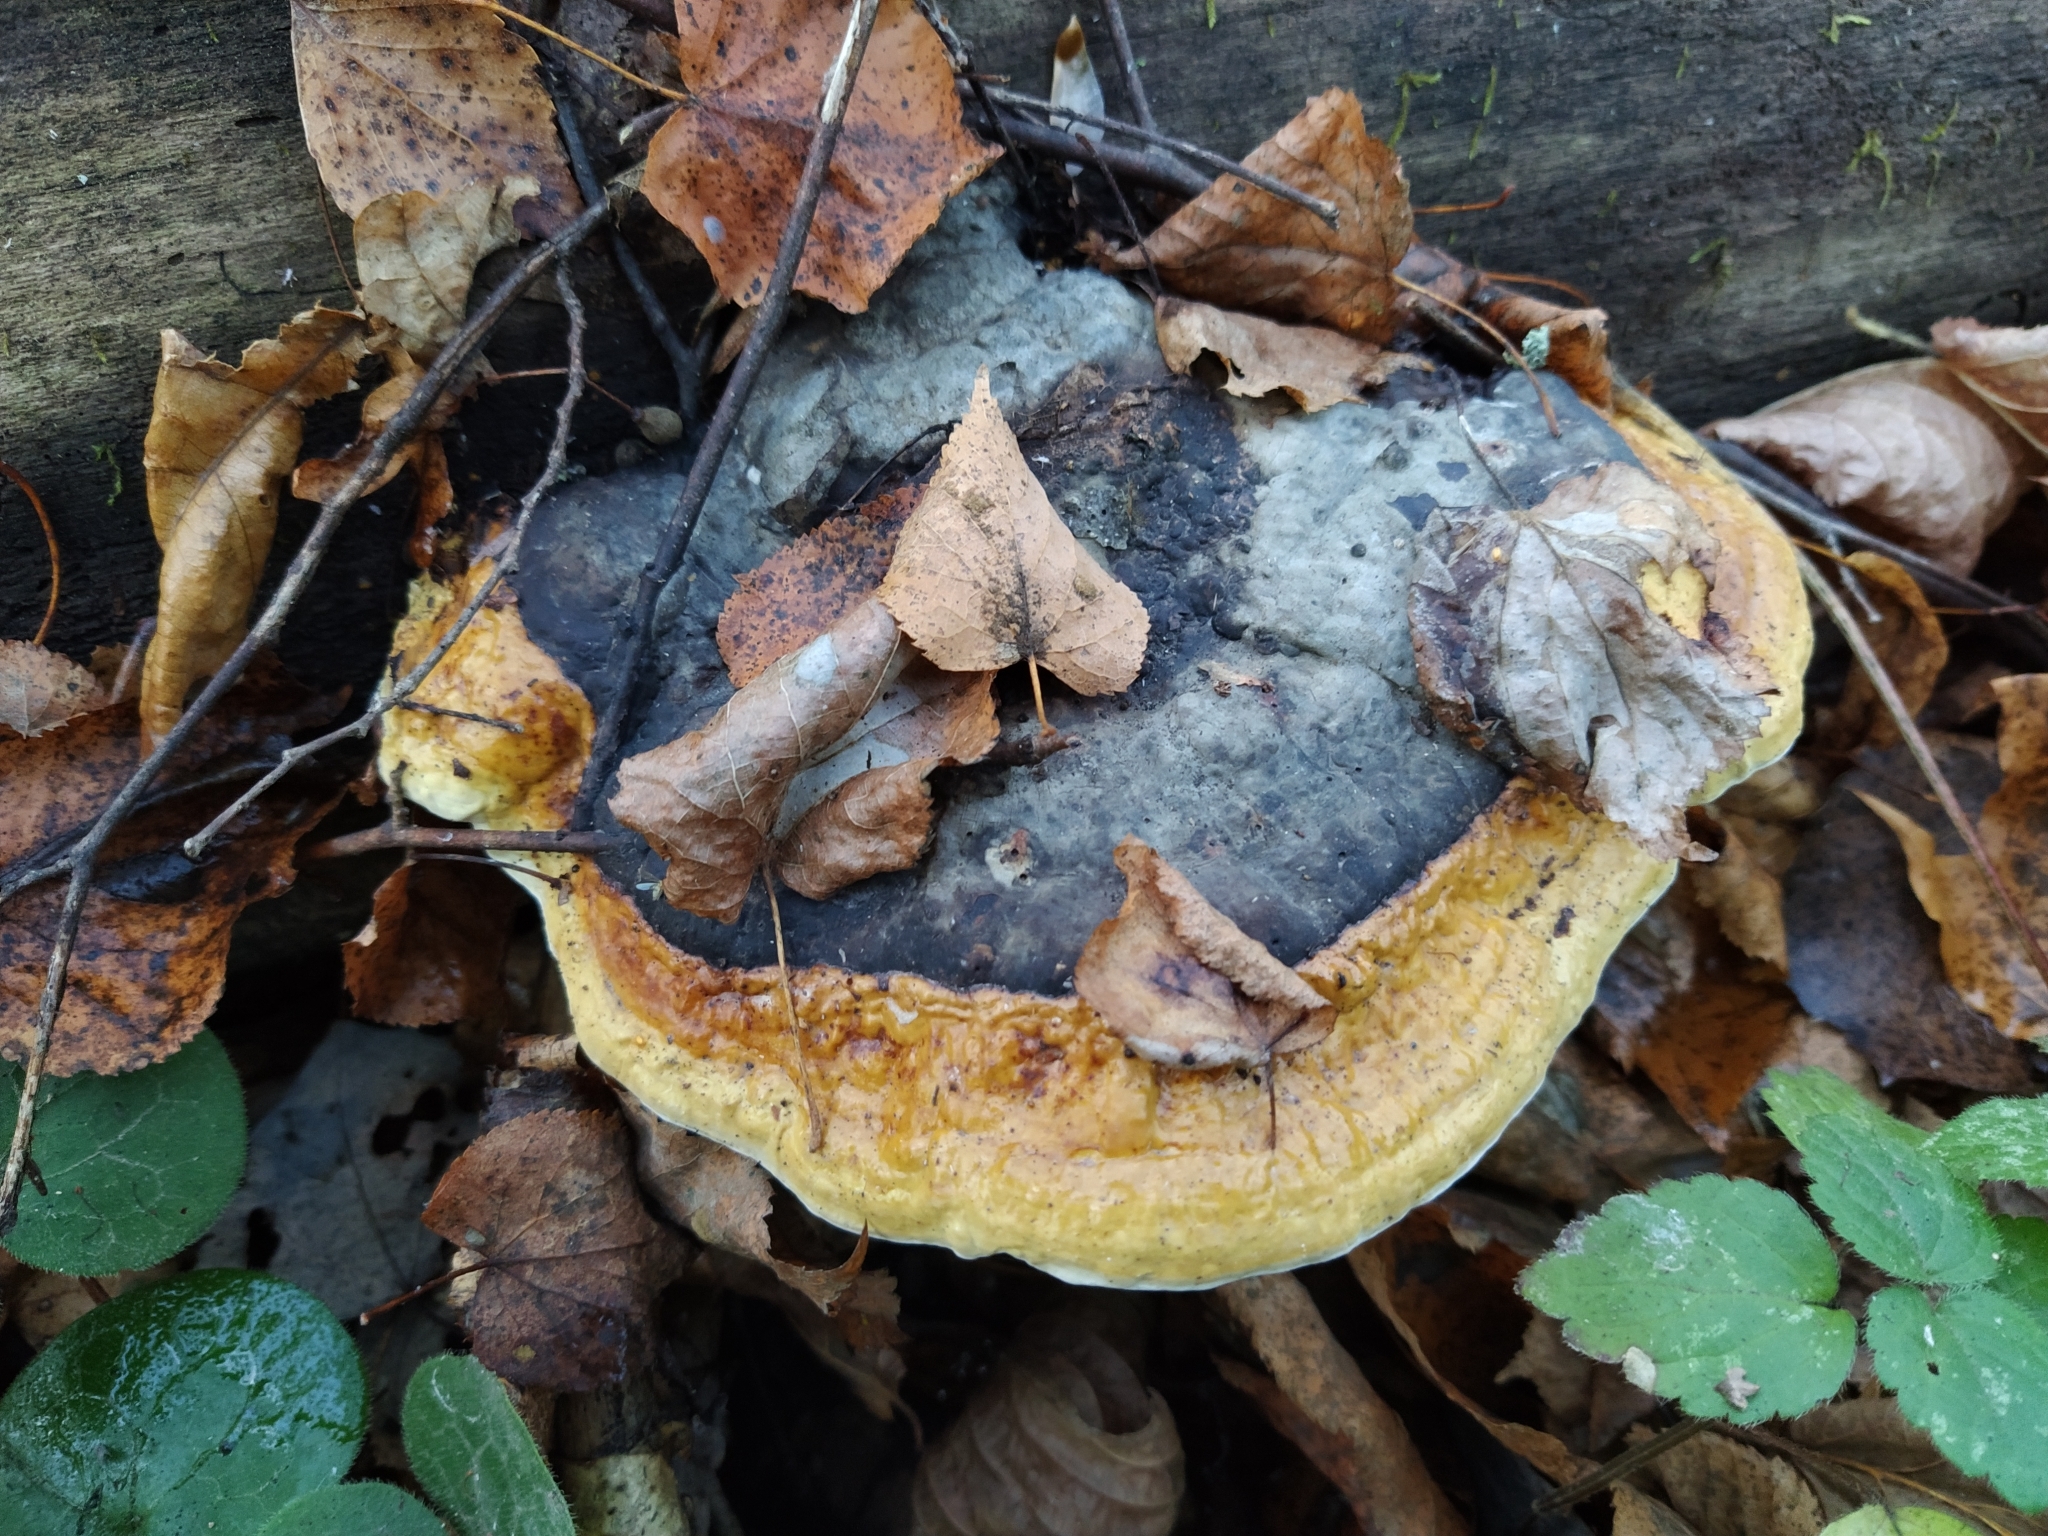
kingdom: Fungi
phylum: Basidiomycota
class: Agaricomycetes
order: Polyporales
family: Fomitopsidaceae
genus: Fomitopsis
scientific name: Fomitopsis pinicola
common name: Red-belted bracket
